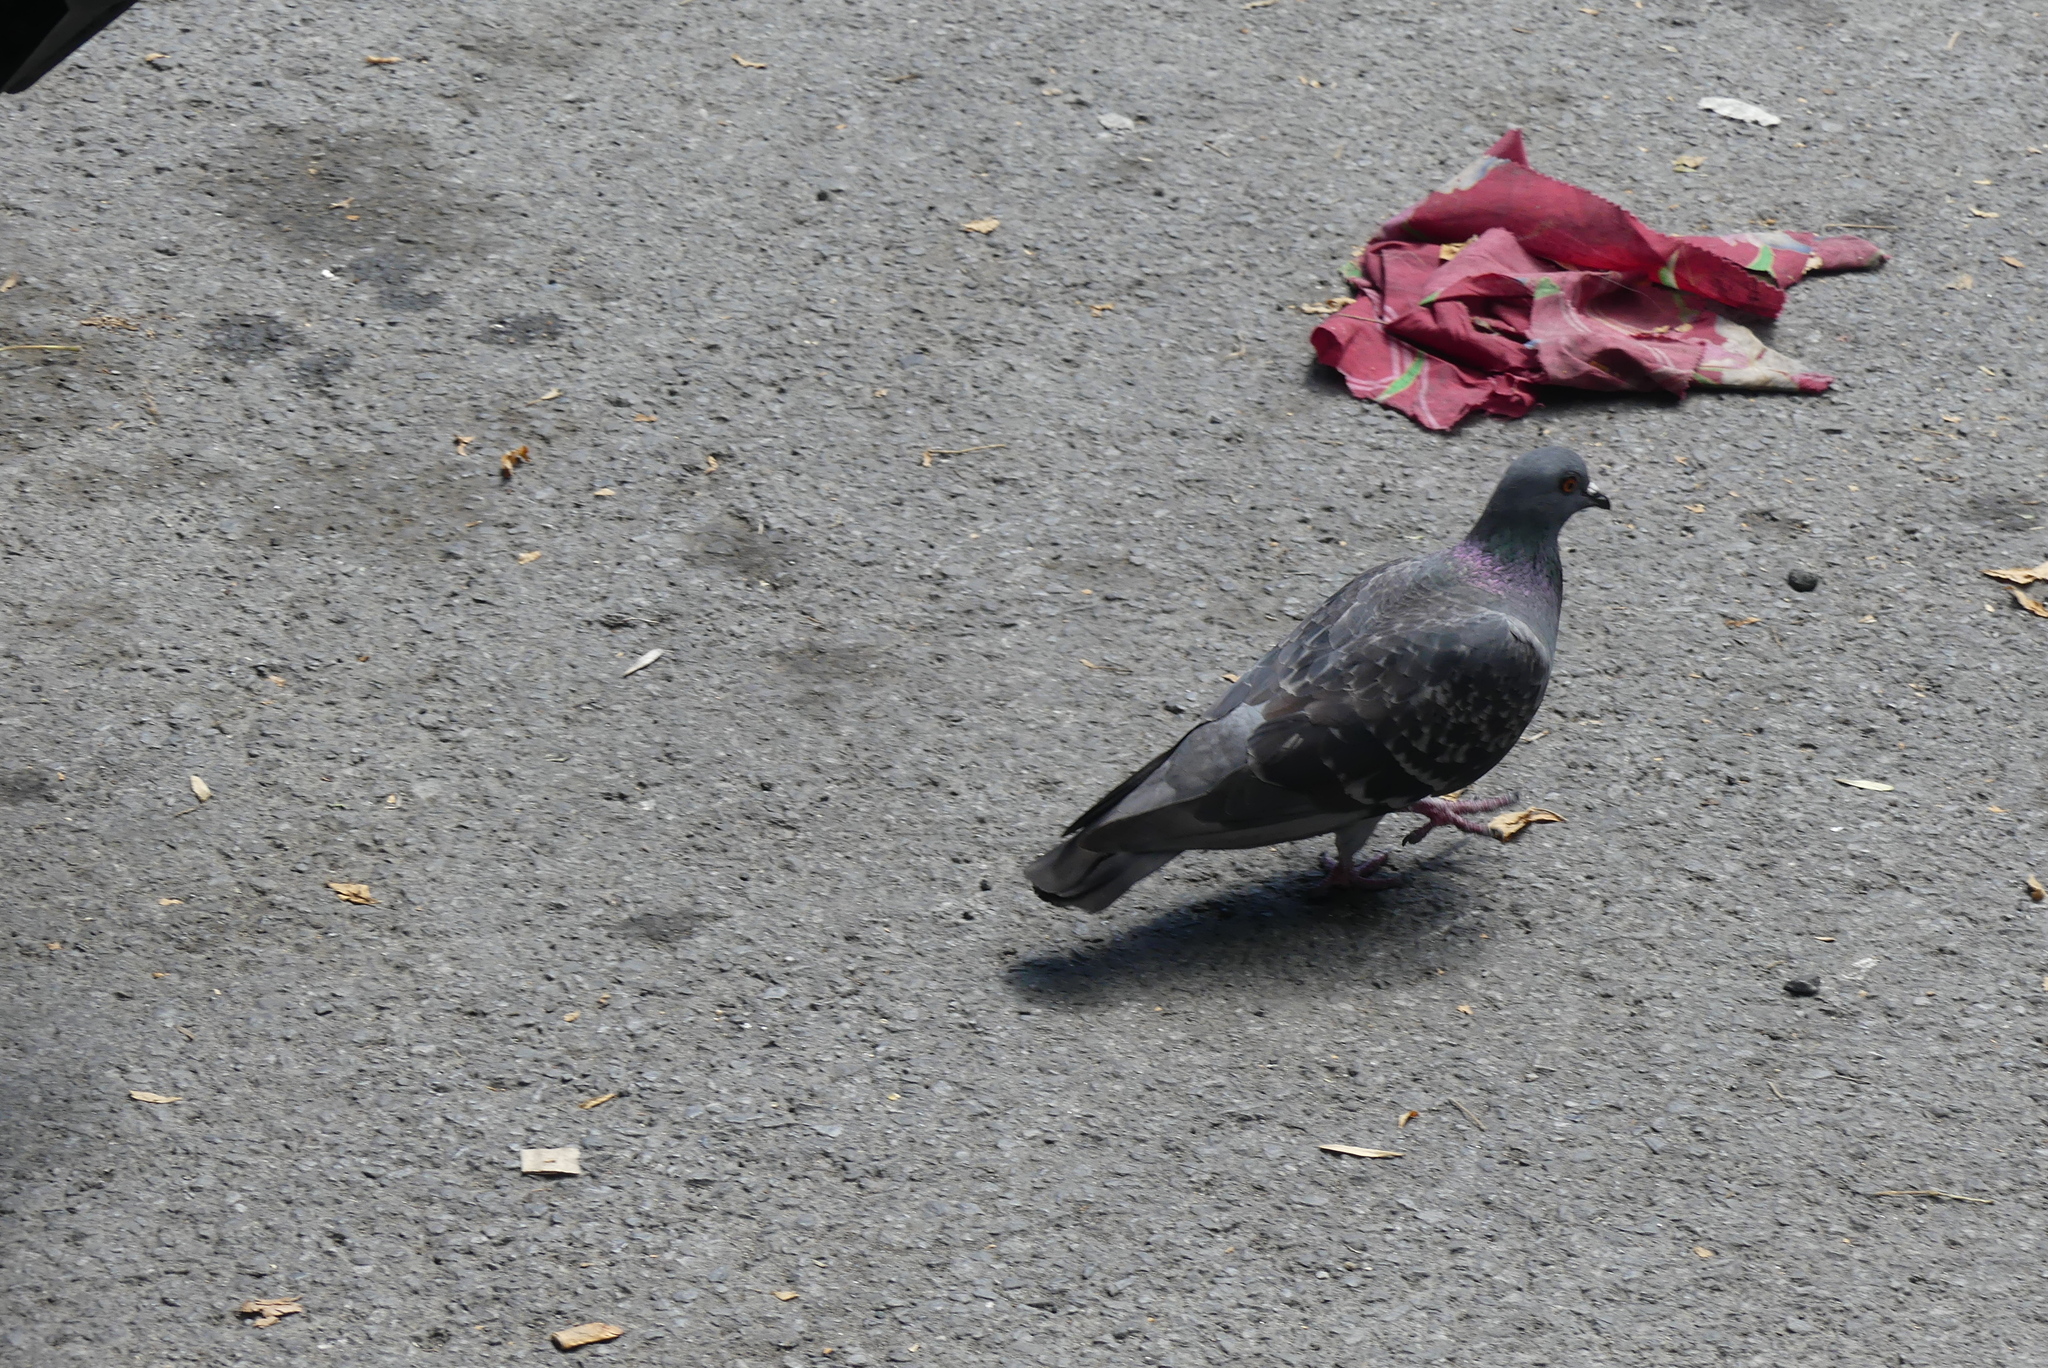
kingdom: Animalia
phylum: Chordata
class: Aves
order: Columbiformes
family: Columbidae
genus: Columba
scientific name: Columba livia
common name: Rock pigeon
